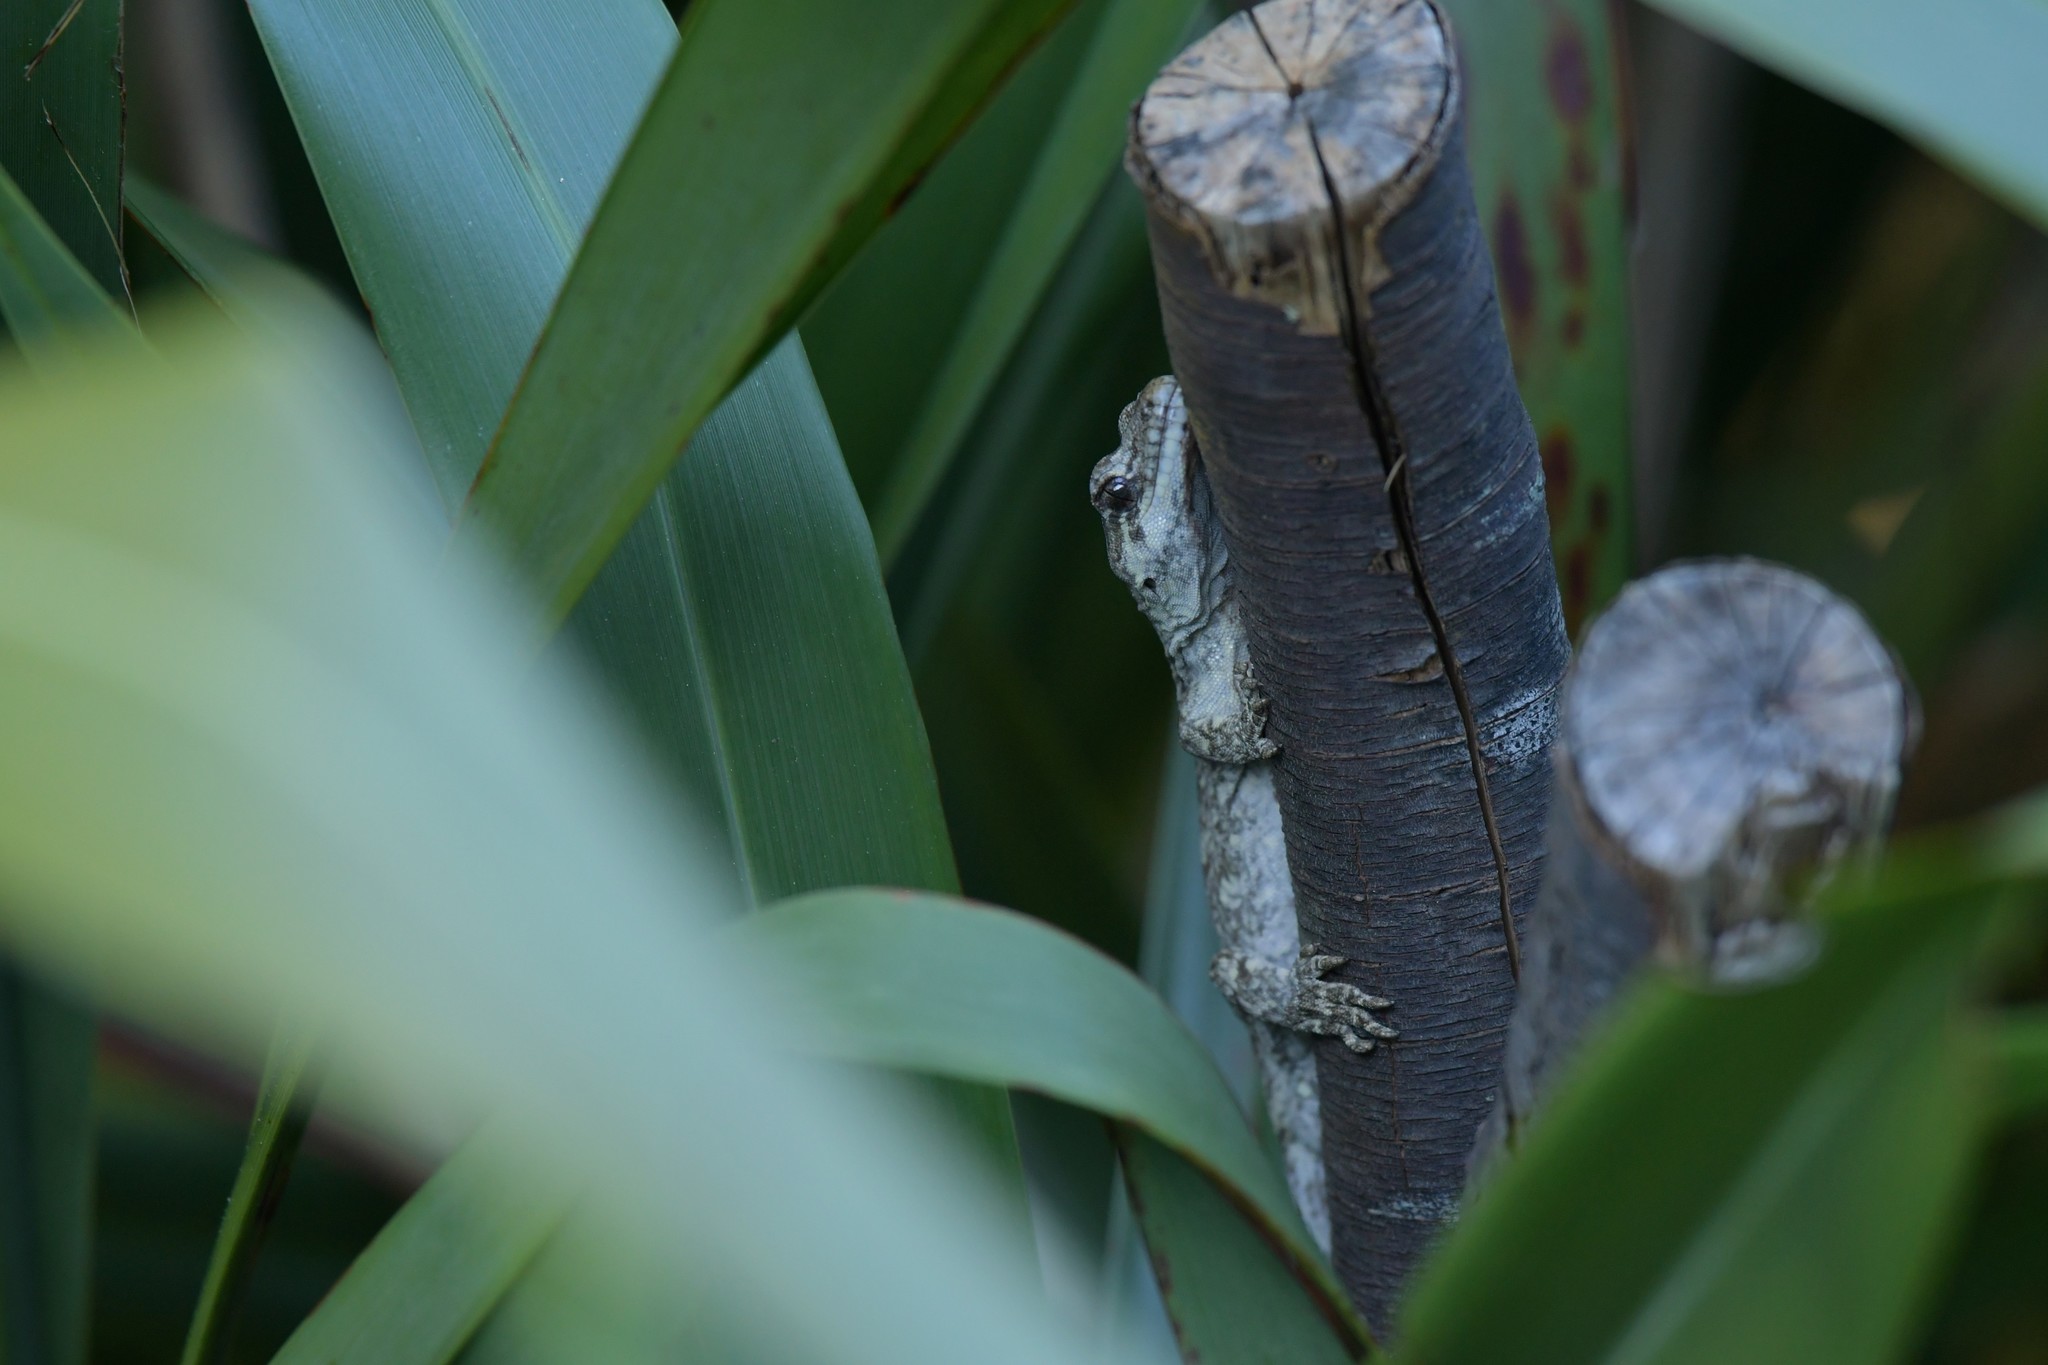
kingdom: Animalia
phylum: Chordata
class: Squamata
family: Diplodactylidae
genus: Mokopirirakau
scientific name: Mokopirirakau
